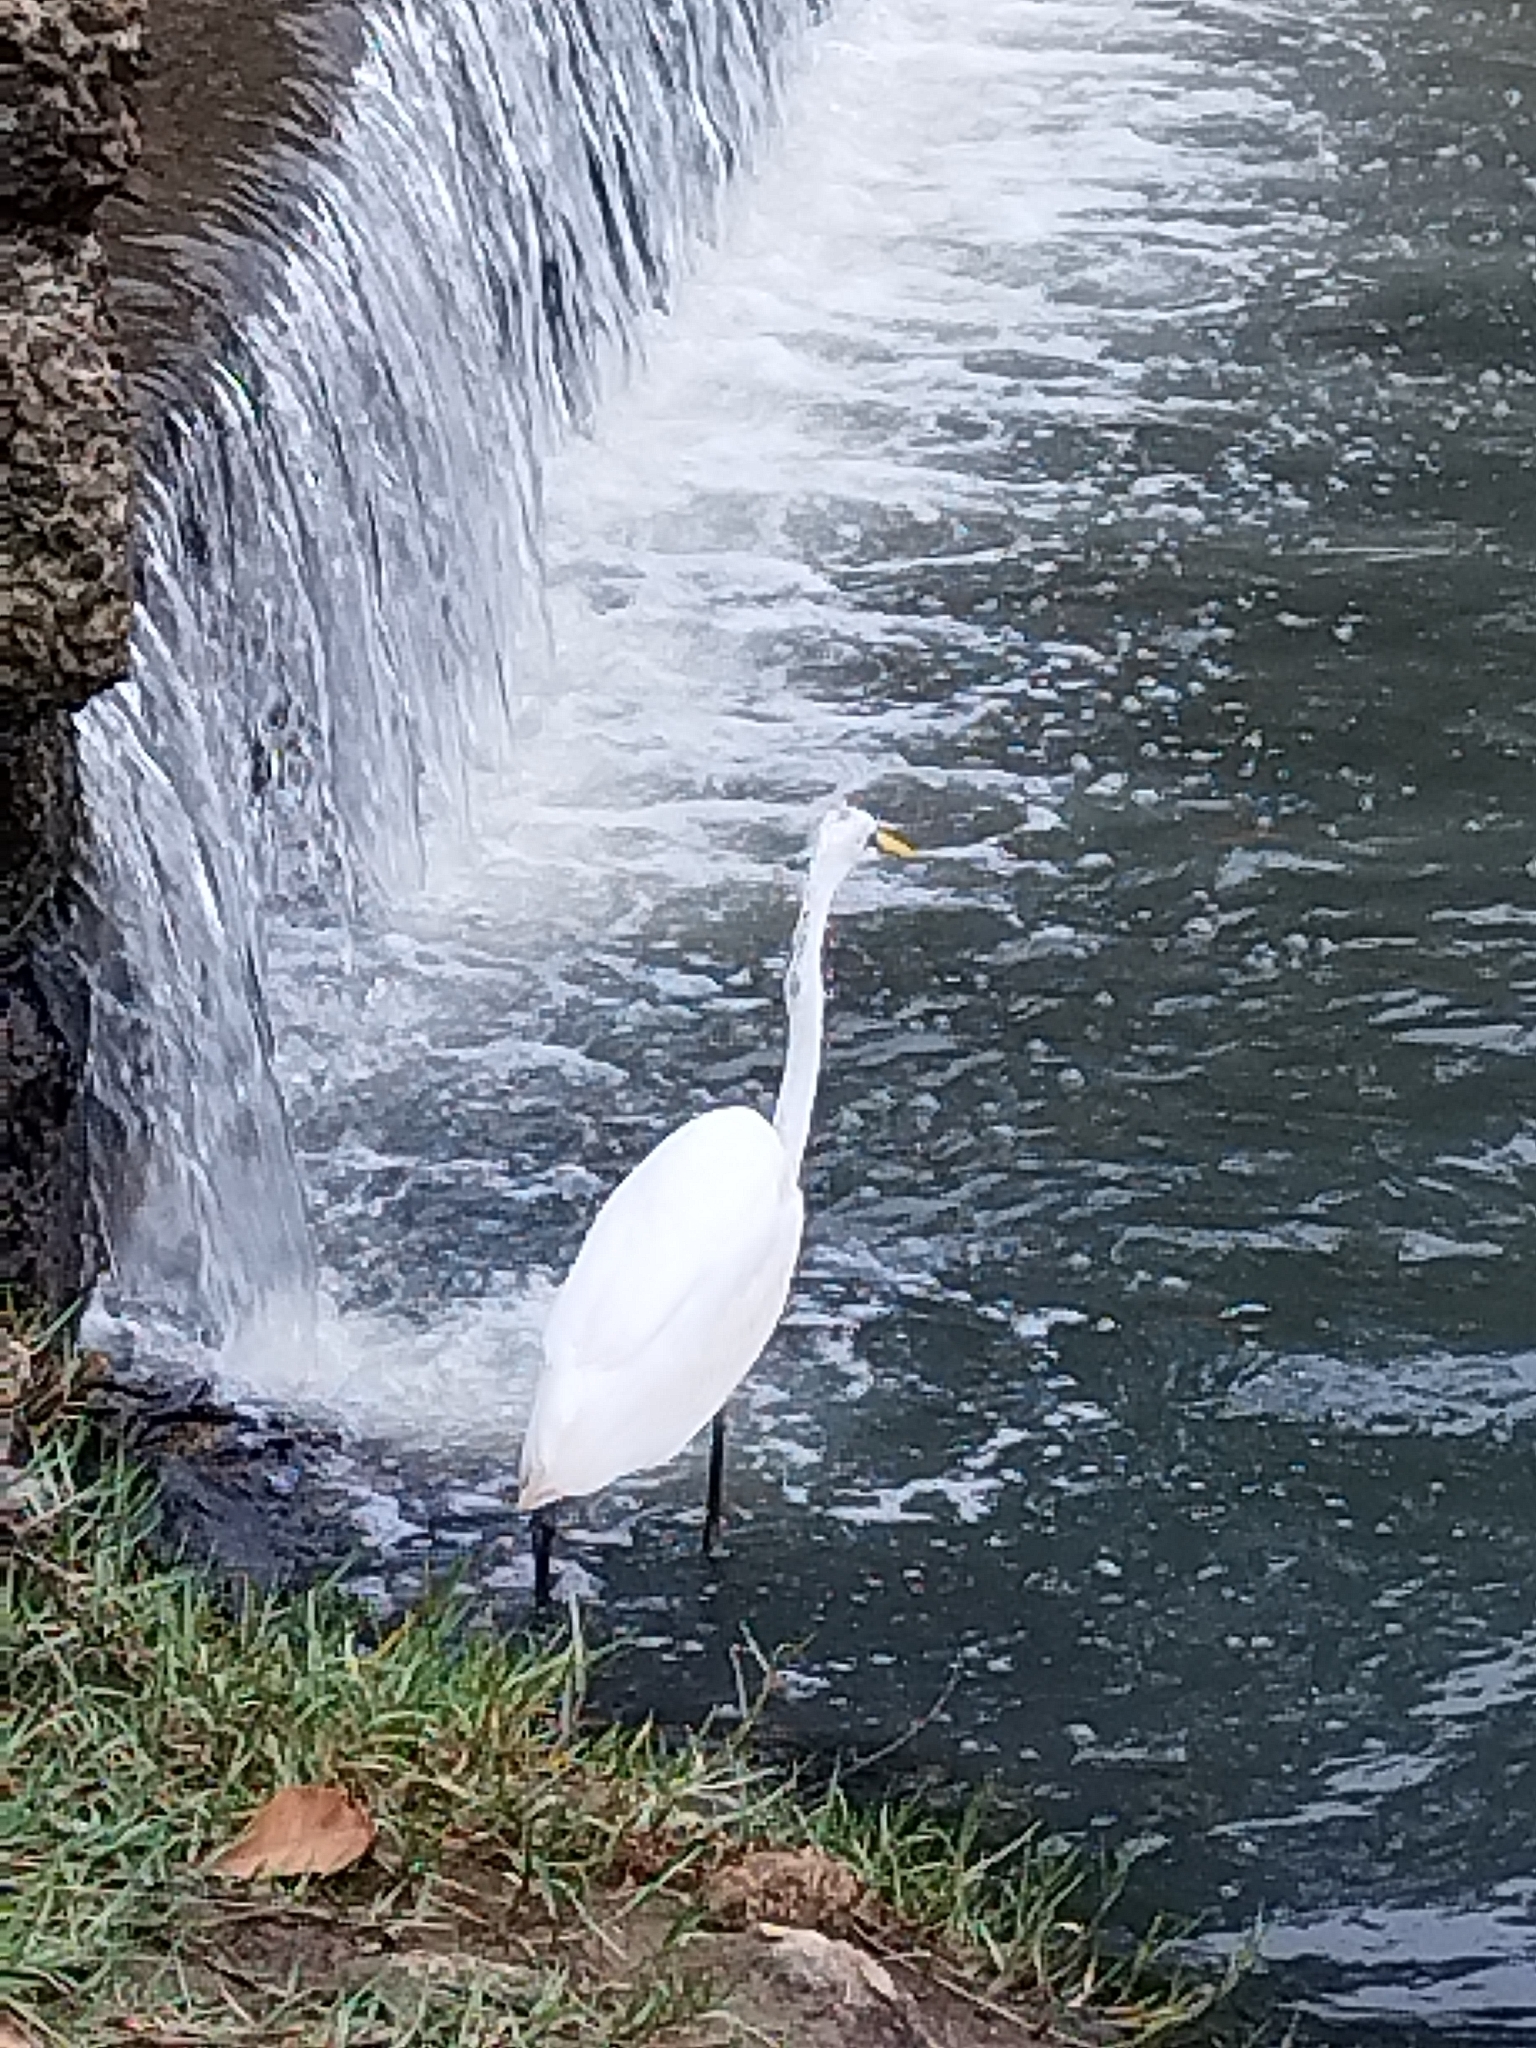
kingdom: Animalia
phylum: Chordata
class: Aves
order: Pelecaniformes
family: Ardeidae
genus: Ardea
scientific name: Ardea alba
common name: Great egret
